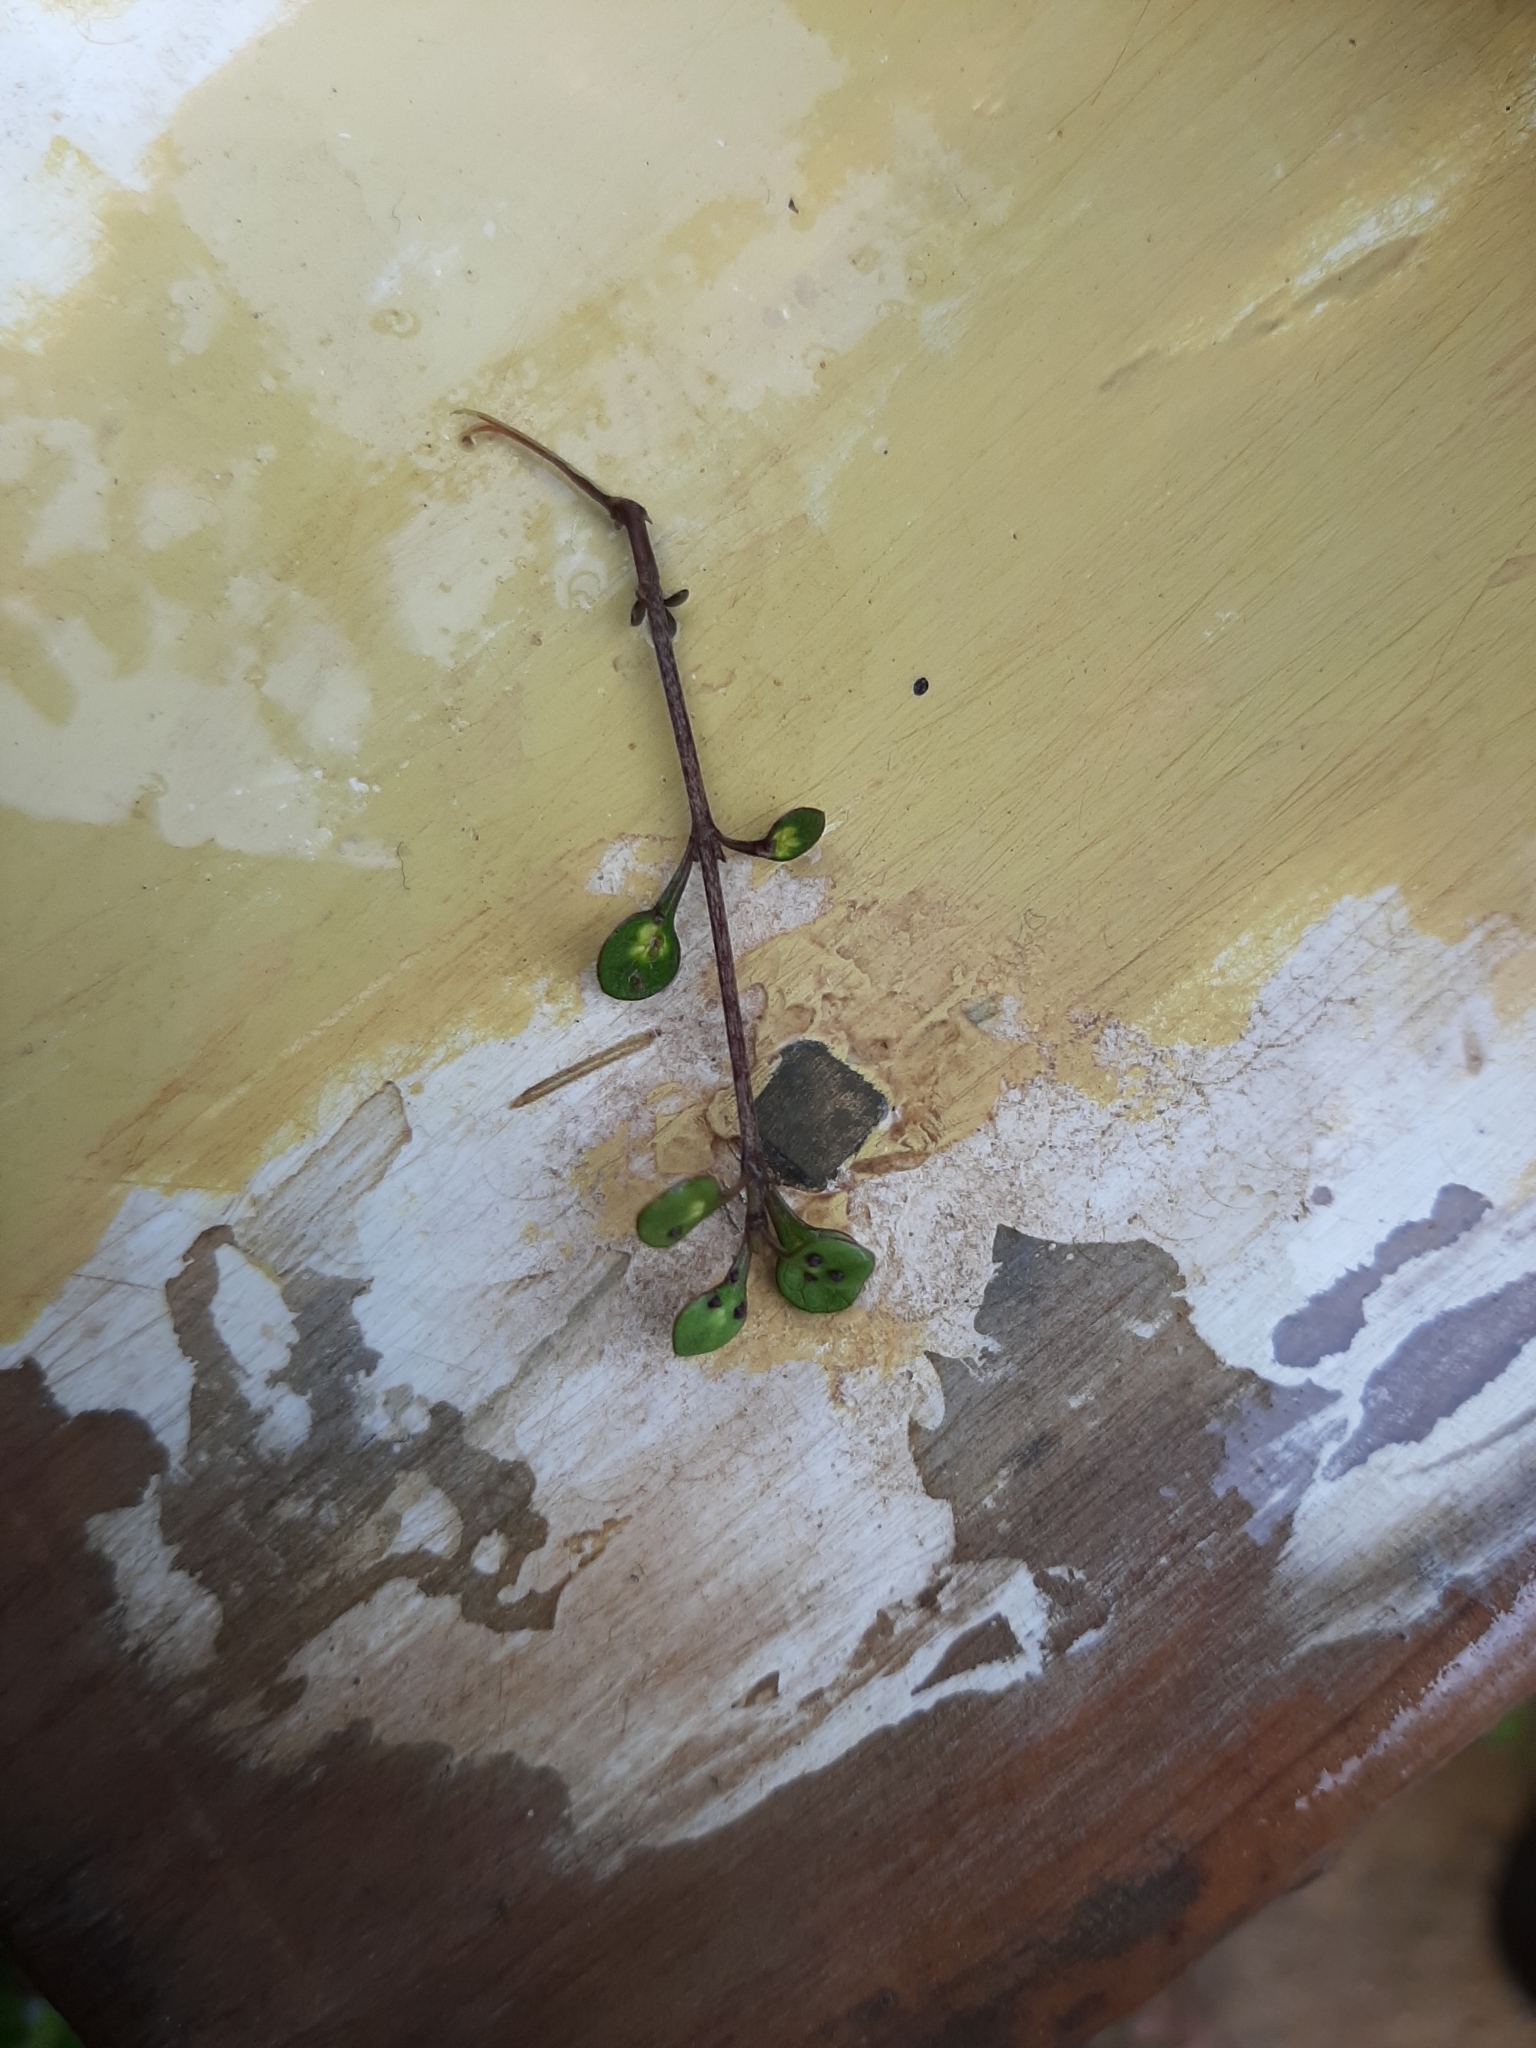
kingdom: Plantae
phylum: Tracheophyta
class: Magnoliopsida
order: Gentianales
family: Rubiaceae
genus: Coprosma
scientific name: Coprosma tenuicaulis
